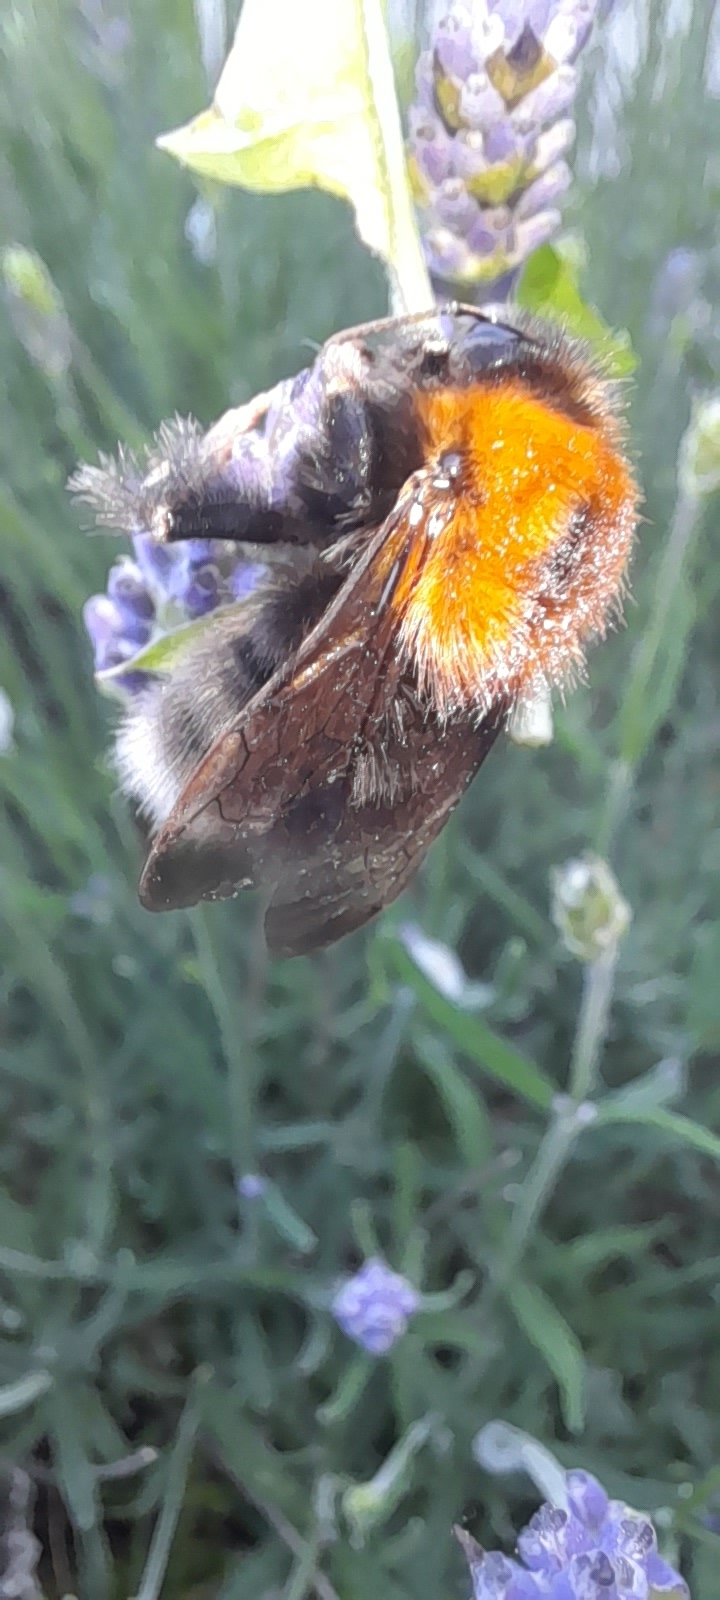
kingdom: Animalia
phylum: Arthropoda
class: Insecta
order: Hymenoptera
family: Apidae
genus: Bombus
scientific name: Bombus hypnorum
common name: New garden bumblebee
